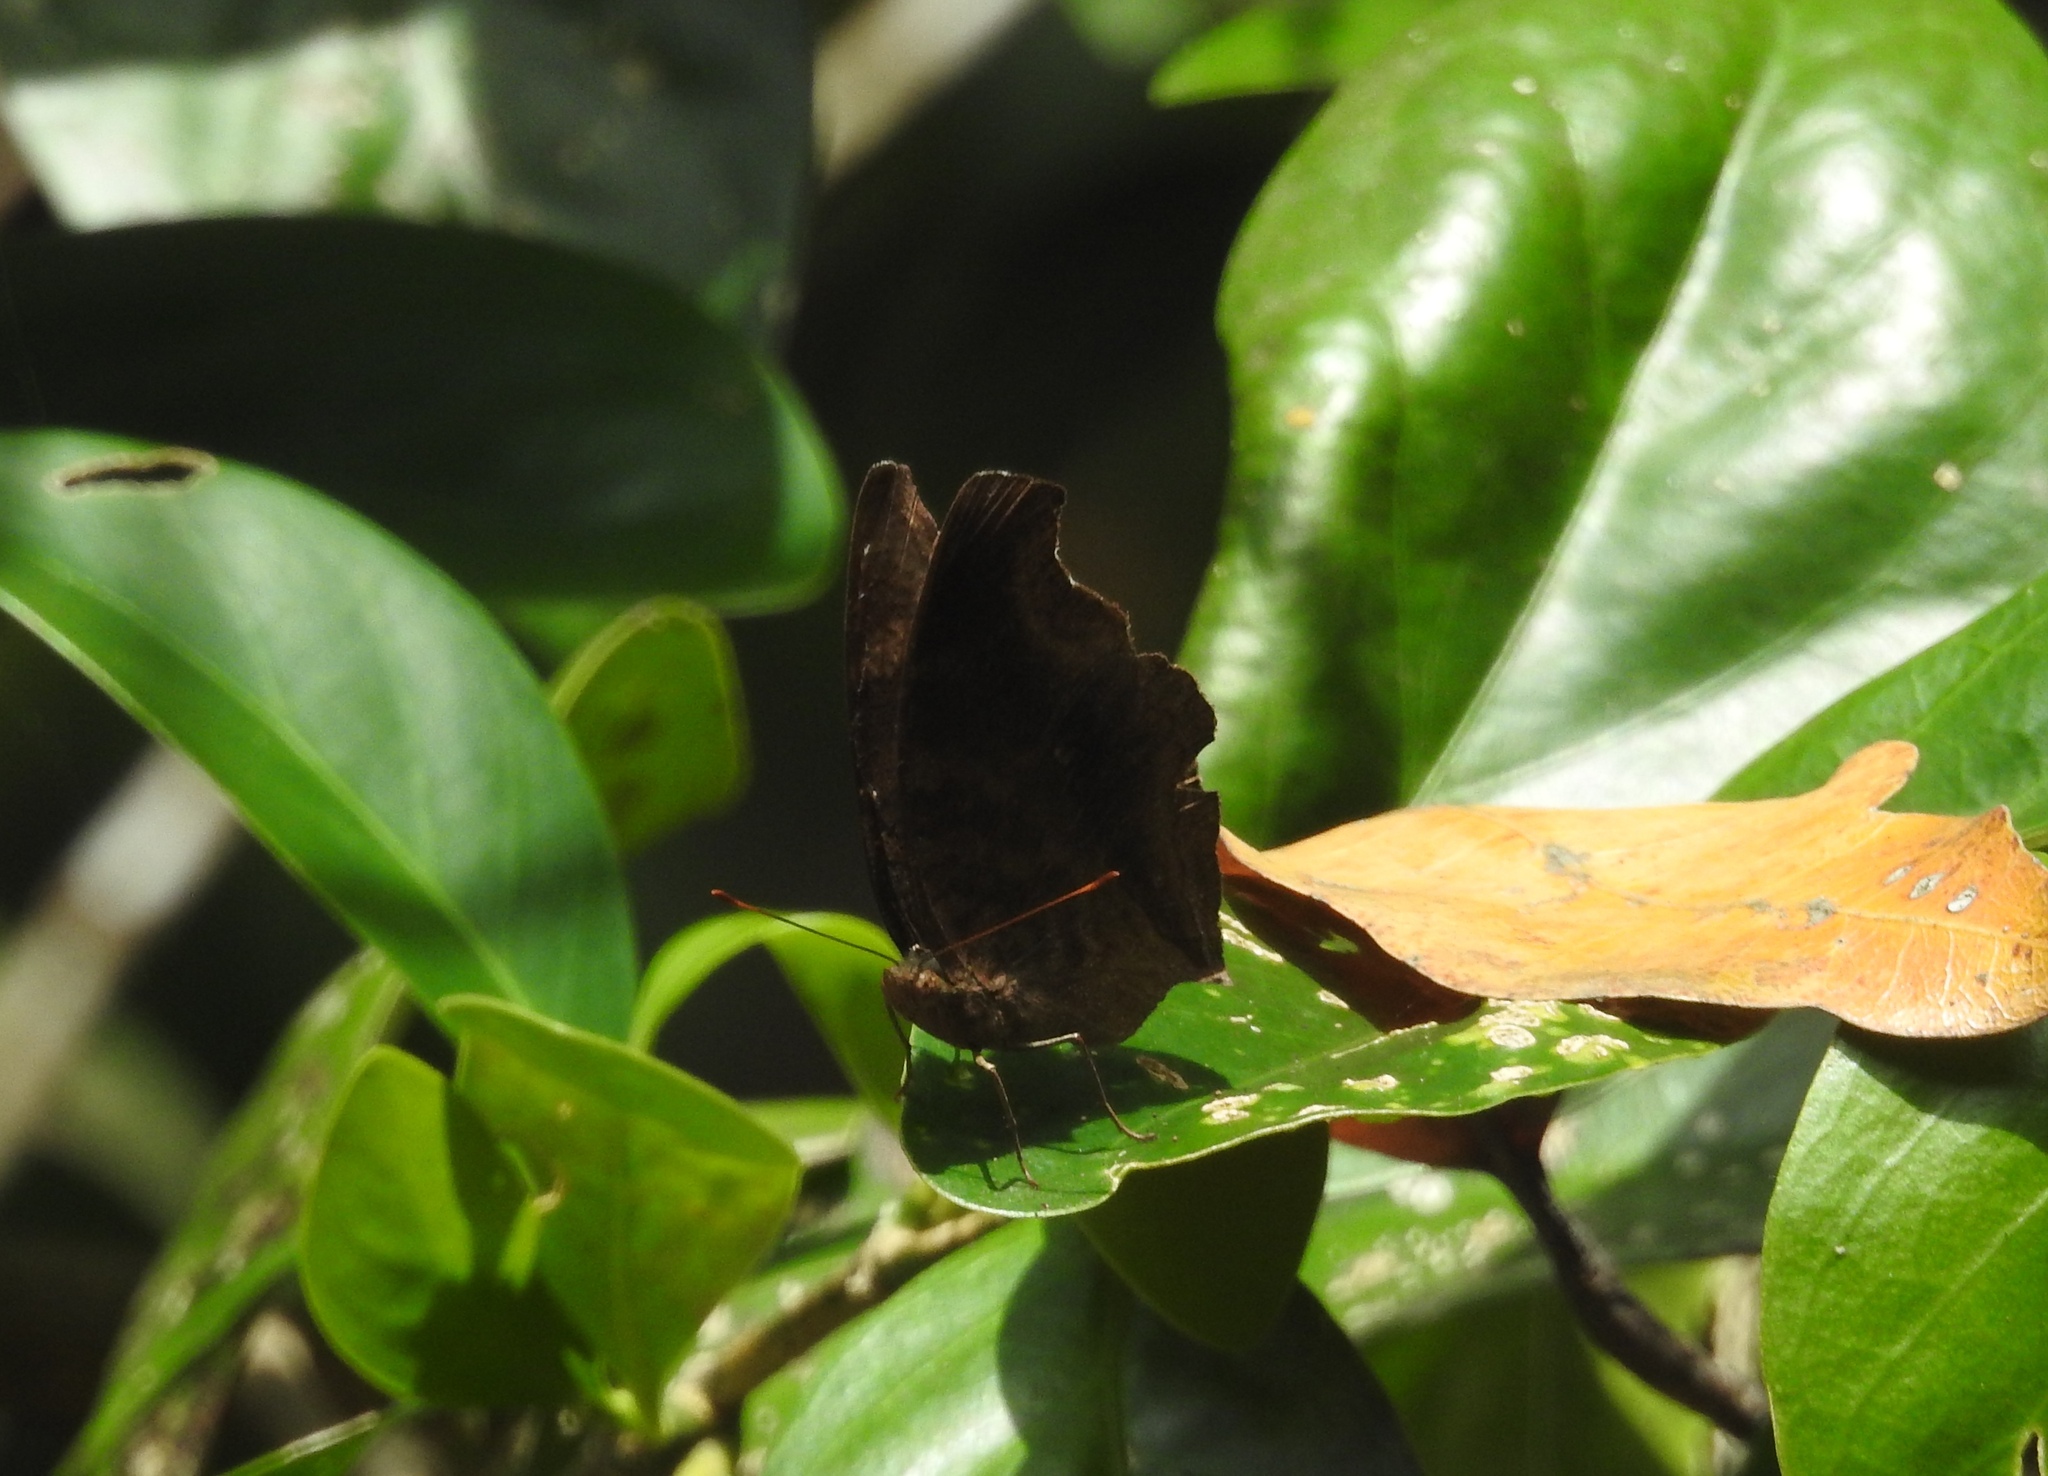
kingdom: Animalia
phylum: Arthropoda
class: Insecta
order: Lepidoptera
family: Nymphalidae
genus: Junonia
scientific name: Junonia iphita
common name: Chocolate pansy
